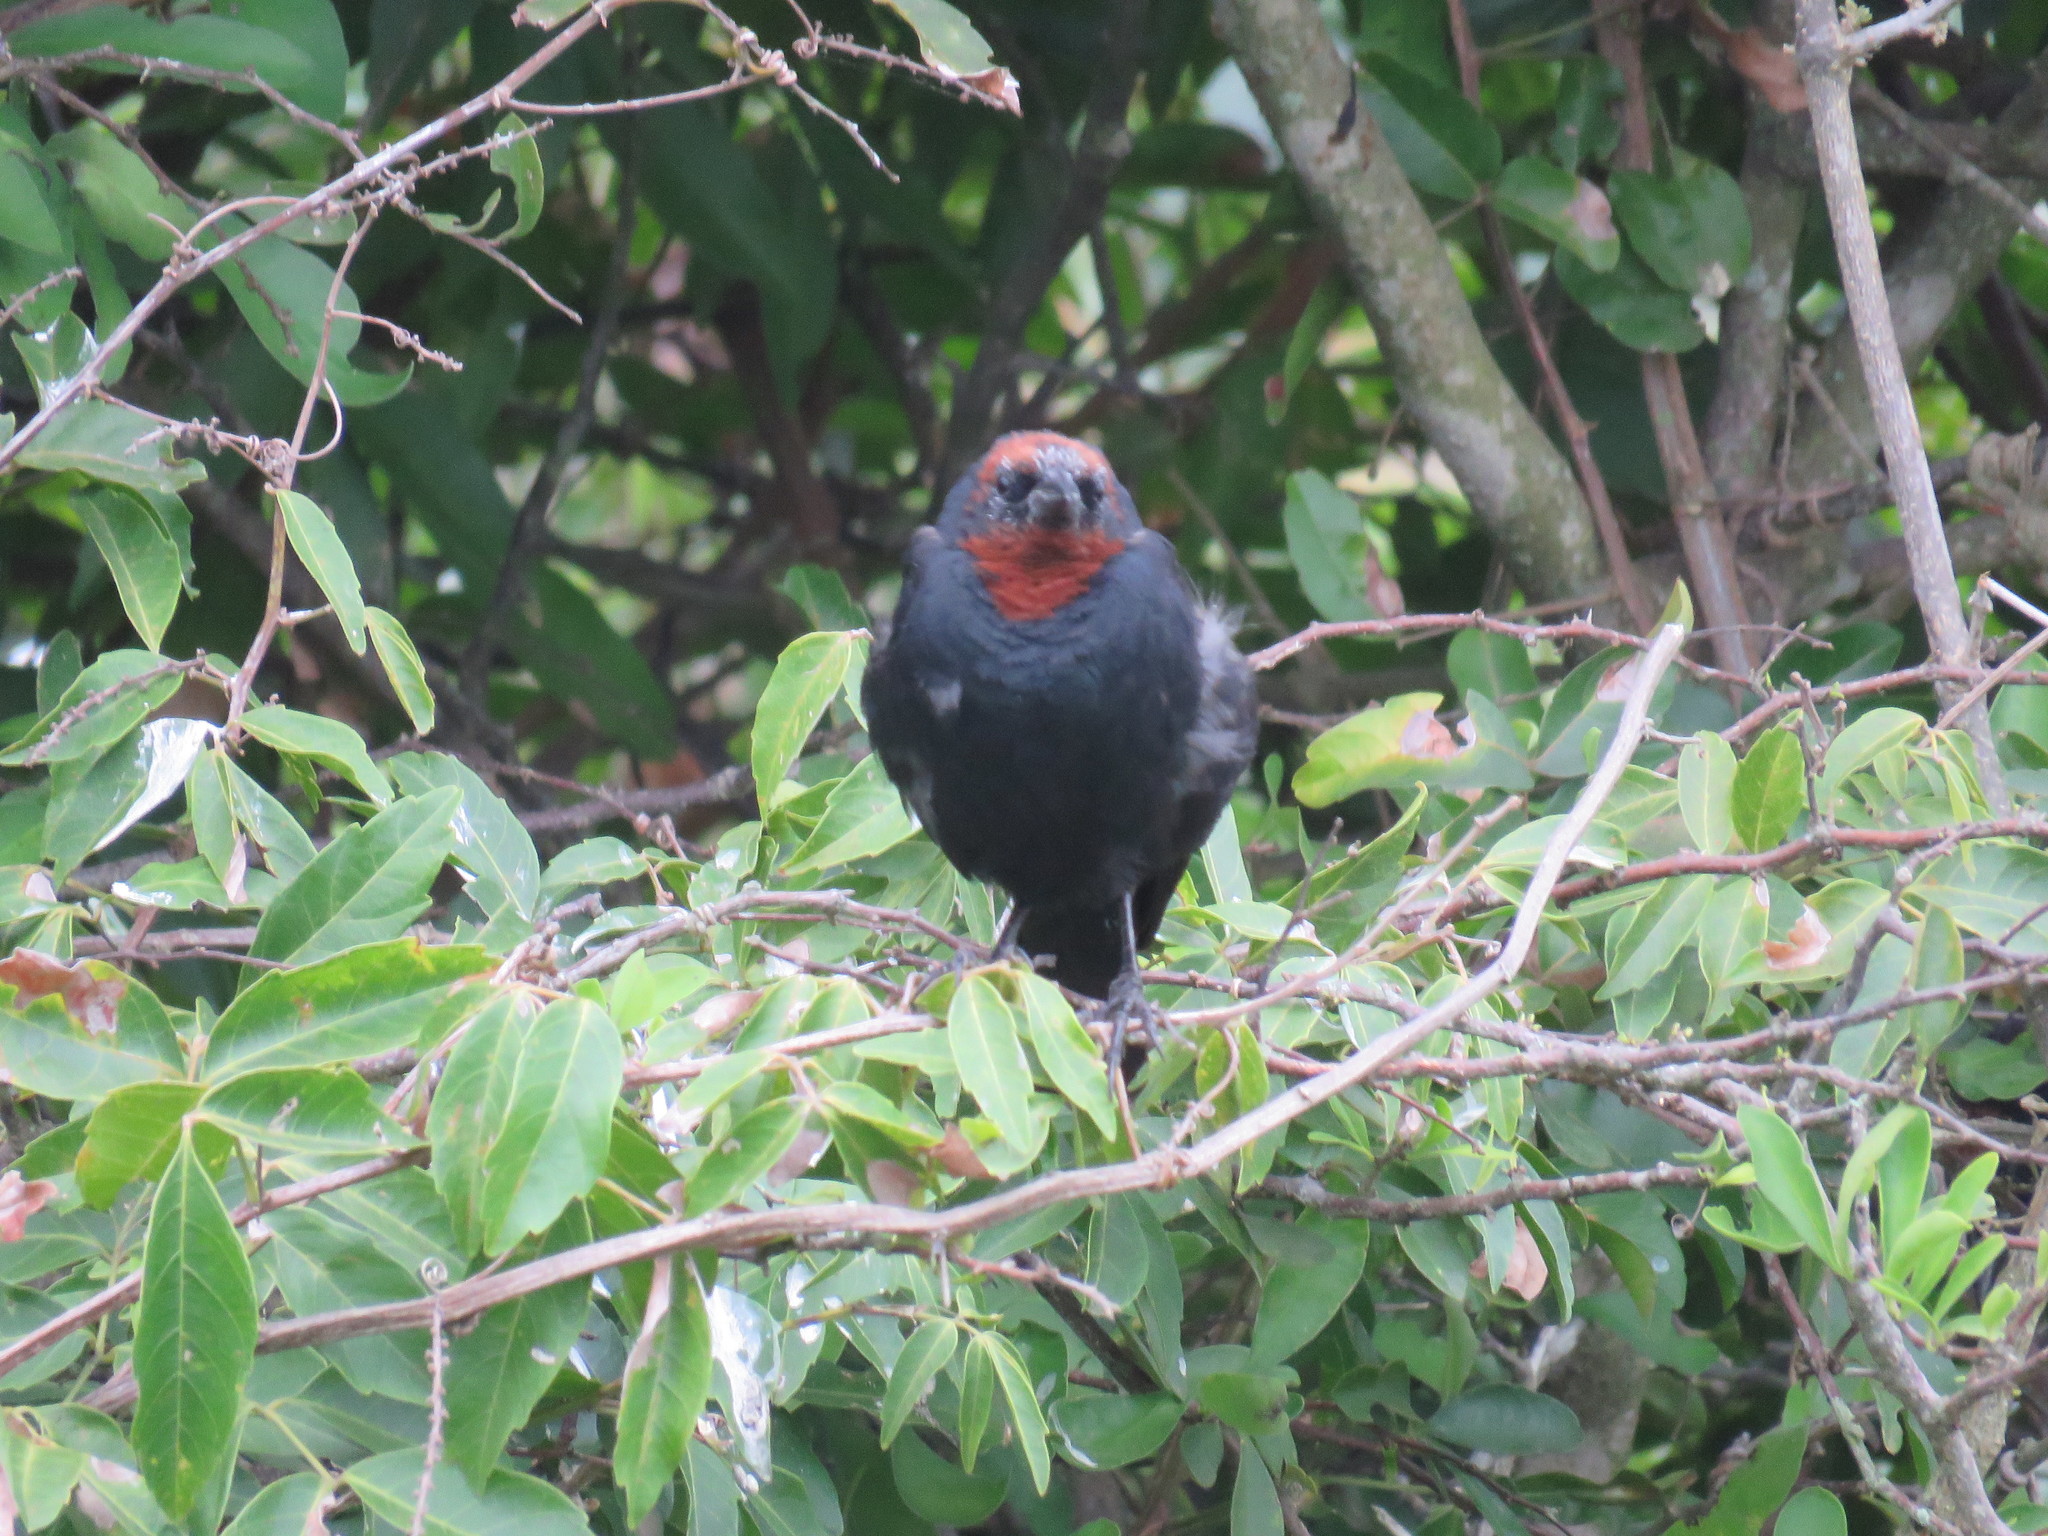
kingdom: Animalia
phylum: Chordata
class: Aves
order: Passeriformes
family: Icteridae
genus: Chrysomus
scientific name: Chrysomus ruficapillus
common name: Chestnut-capped blackbird
